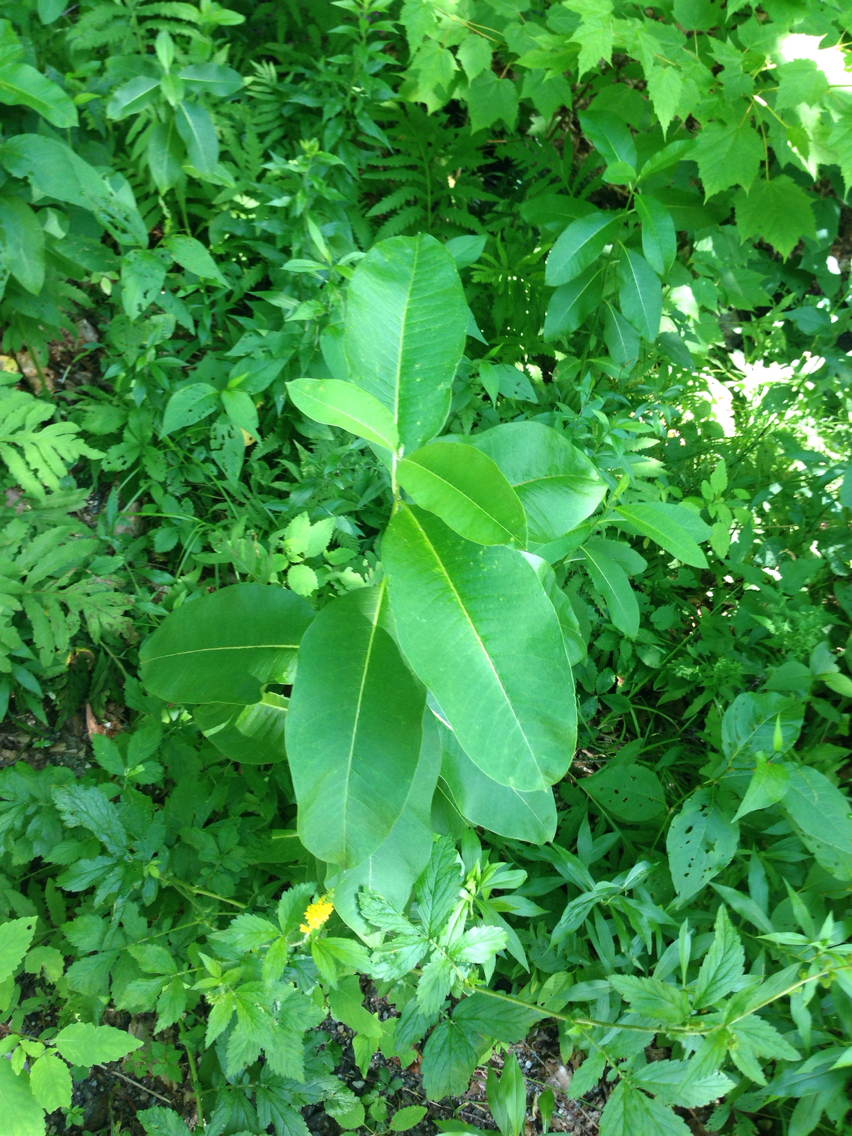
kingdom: Plantae
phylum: Tracheophyta
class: Magnoliopsida
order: Gentianales
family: Apocynaceae
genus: Asclepias
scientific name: Asclepias syriaca
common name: Common milkweed
